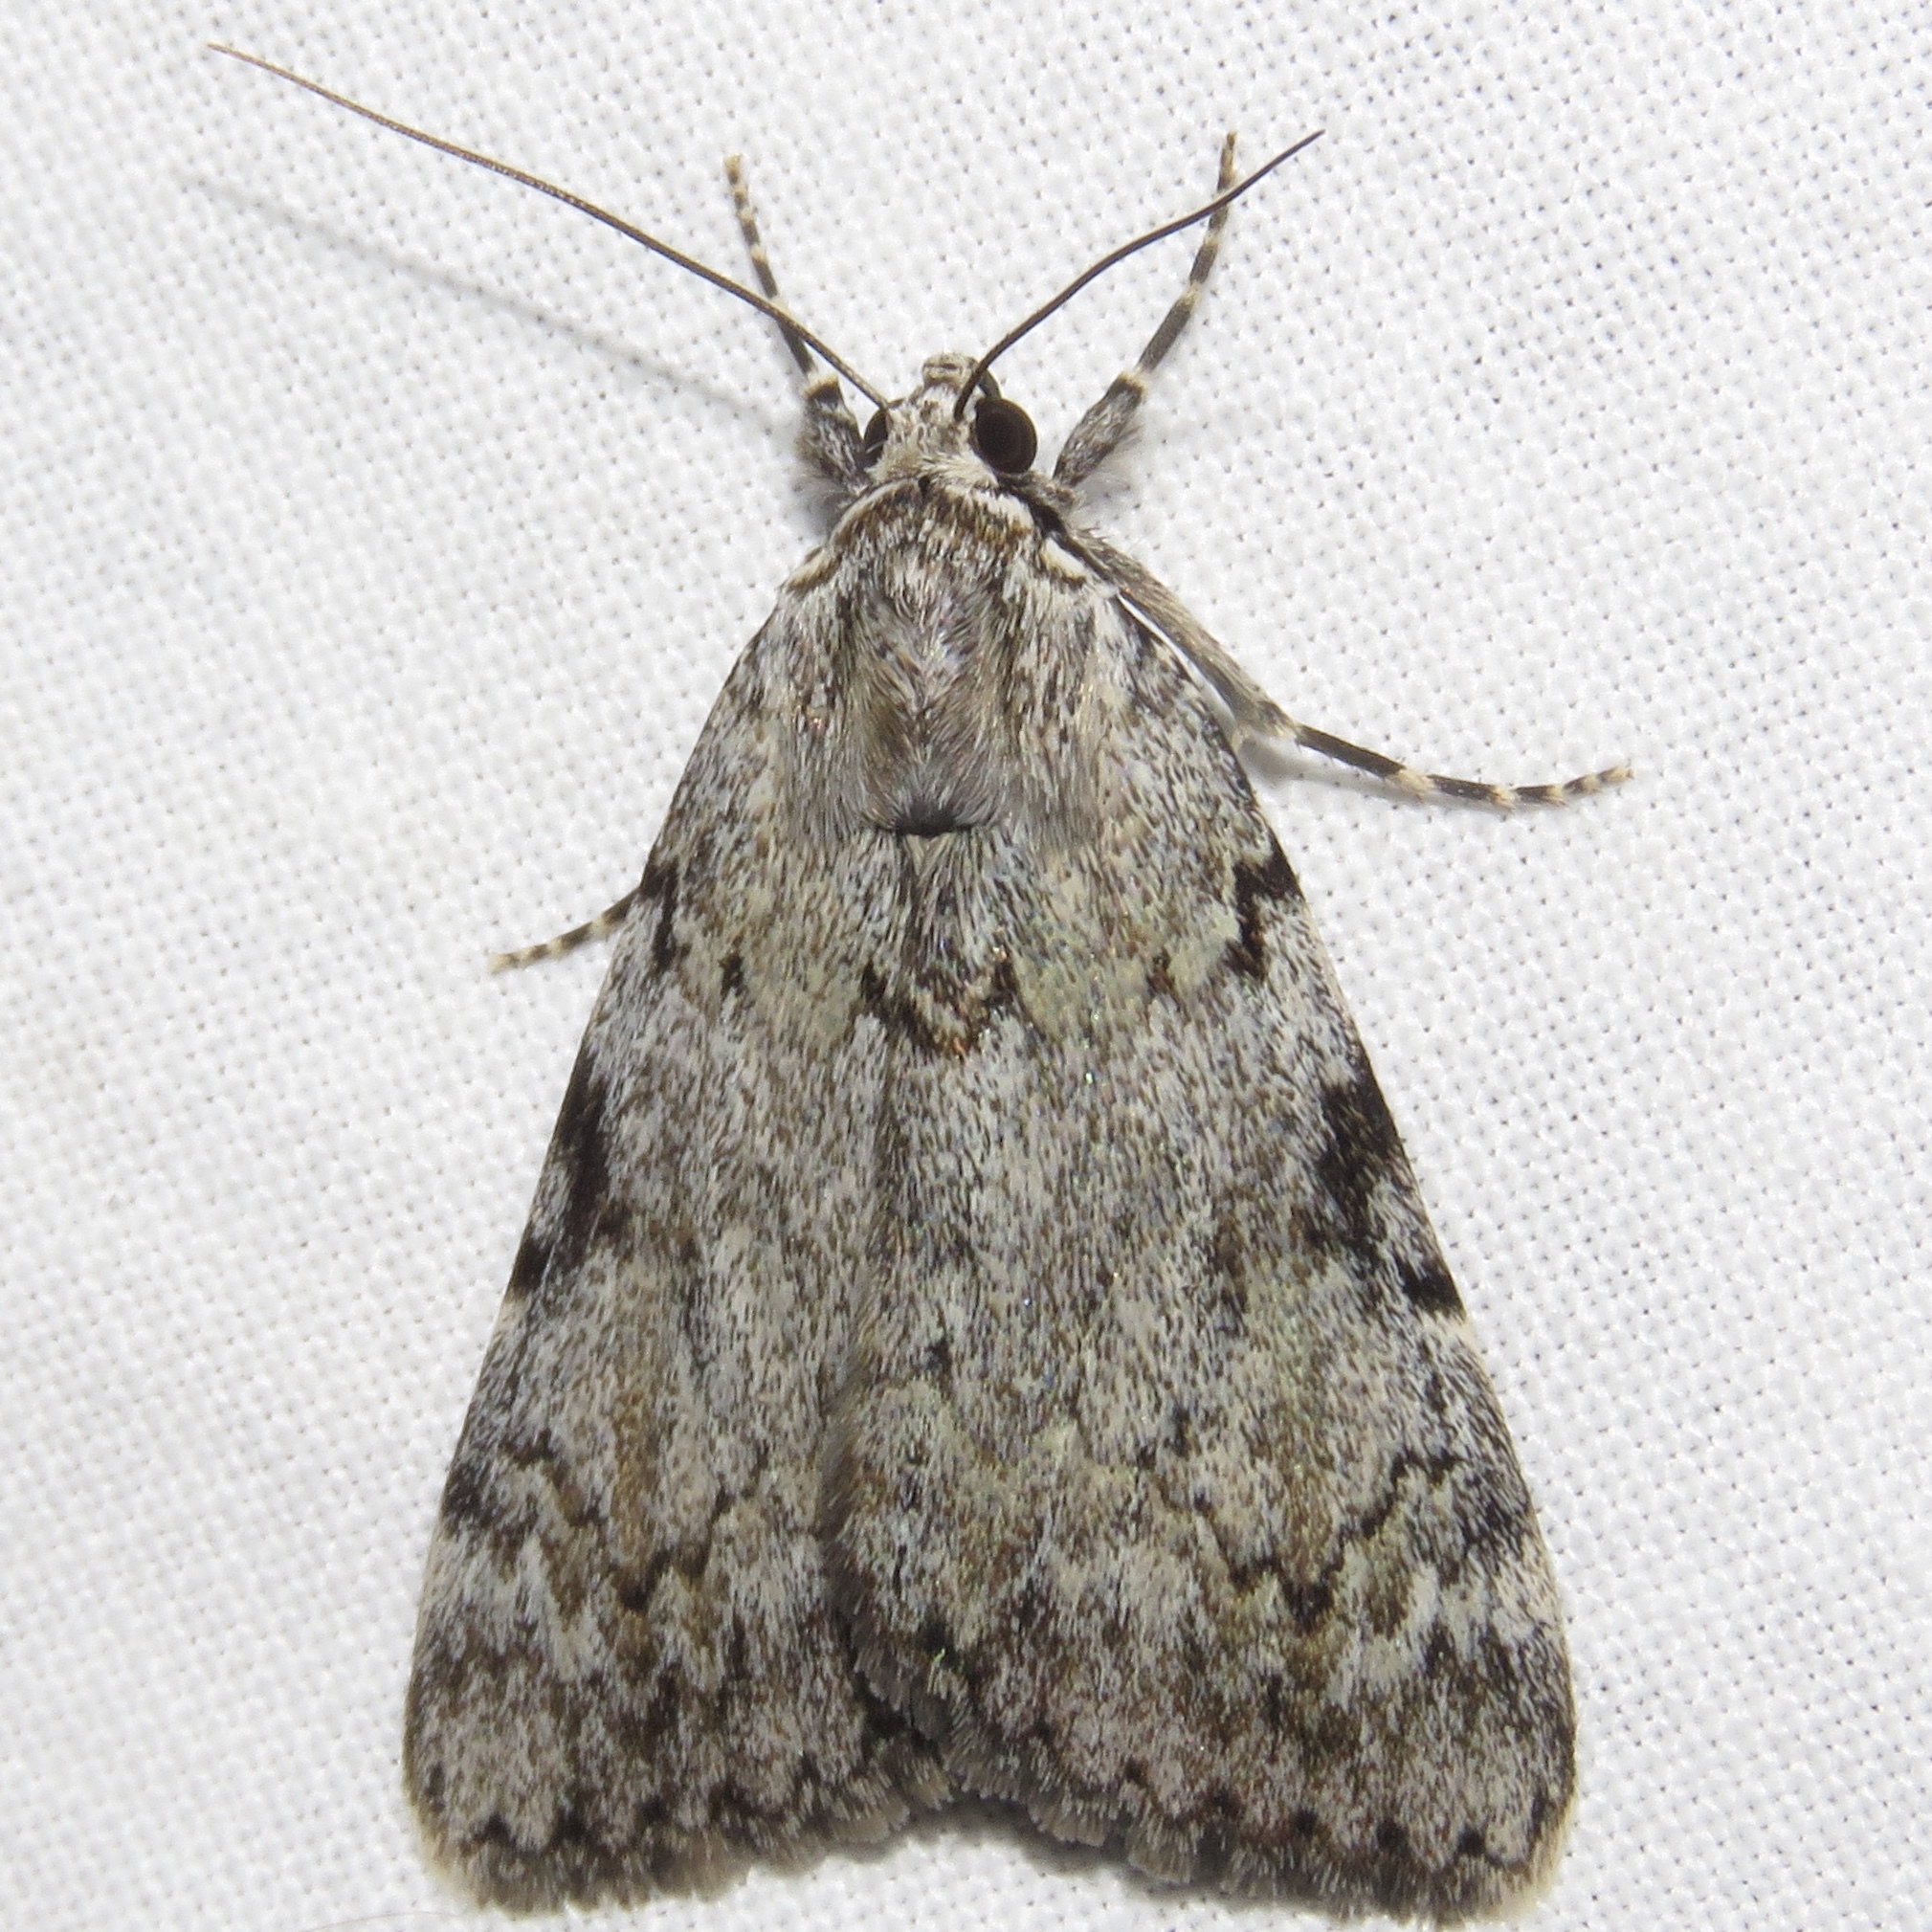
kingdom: Animalia
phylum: Arthropoda
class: Insecta
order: Lepidoptera
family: Erebidae
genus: Catocala
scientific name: Catocala amica
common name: Girlfriend underwing
